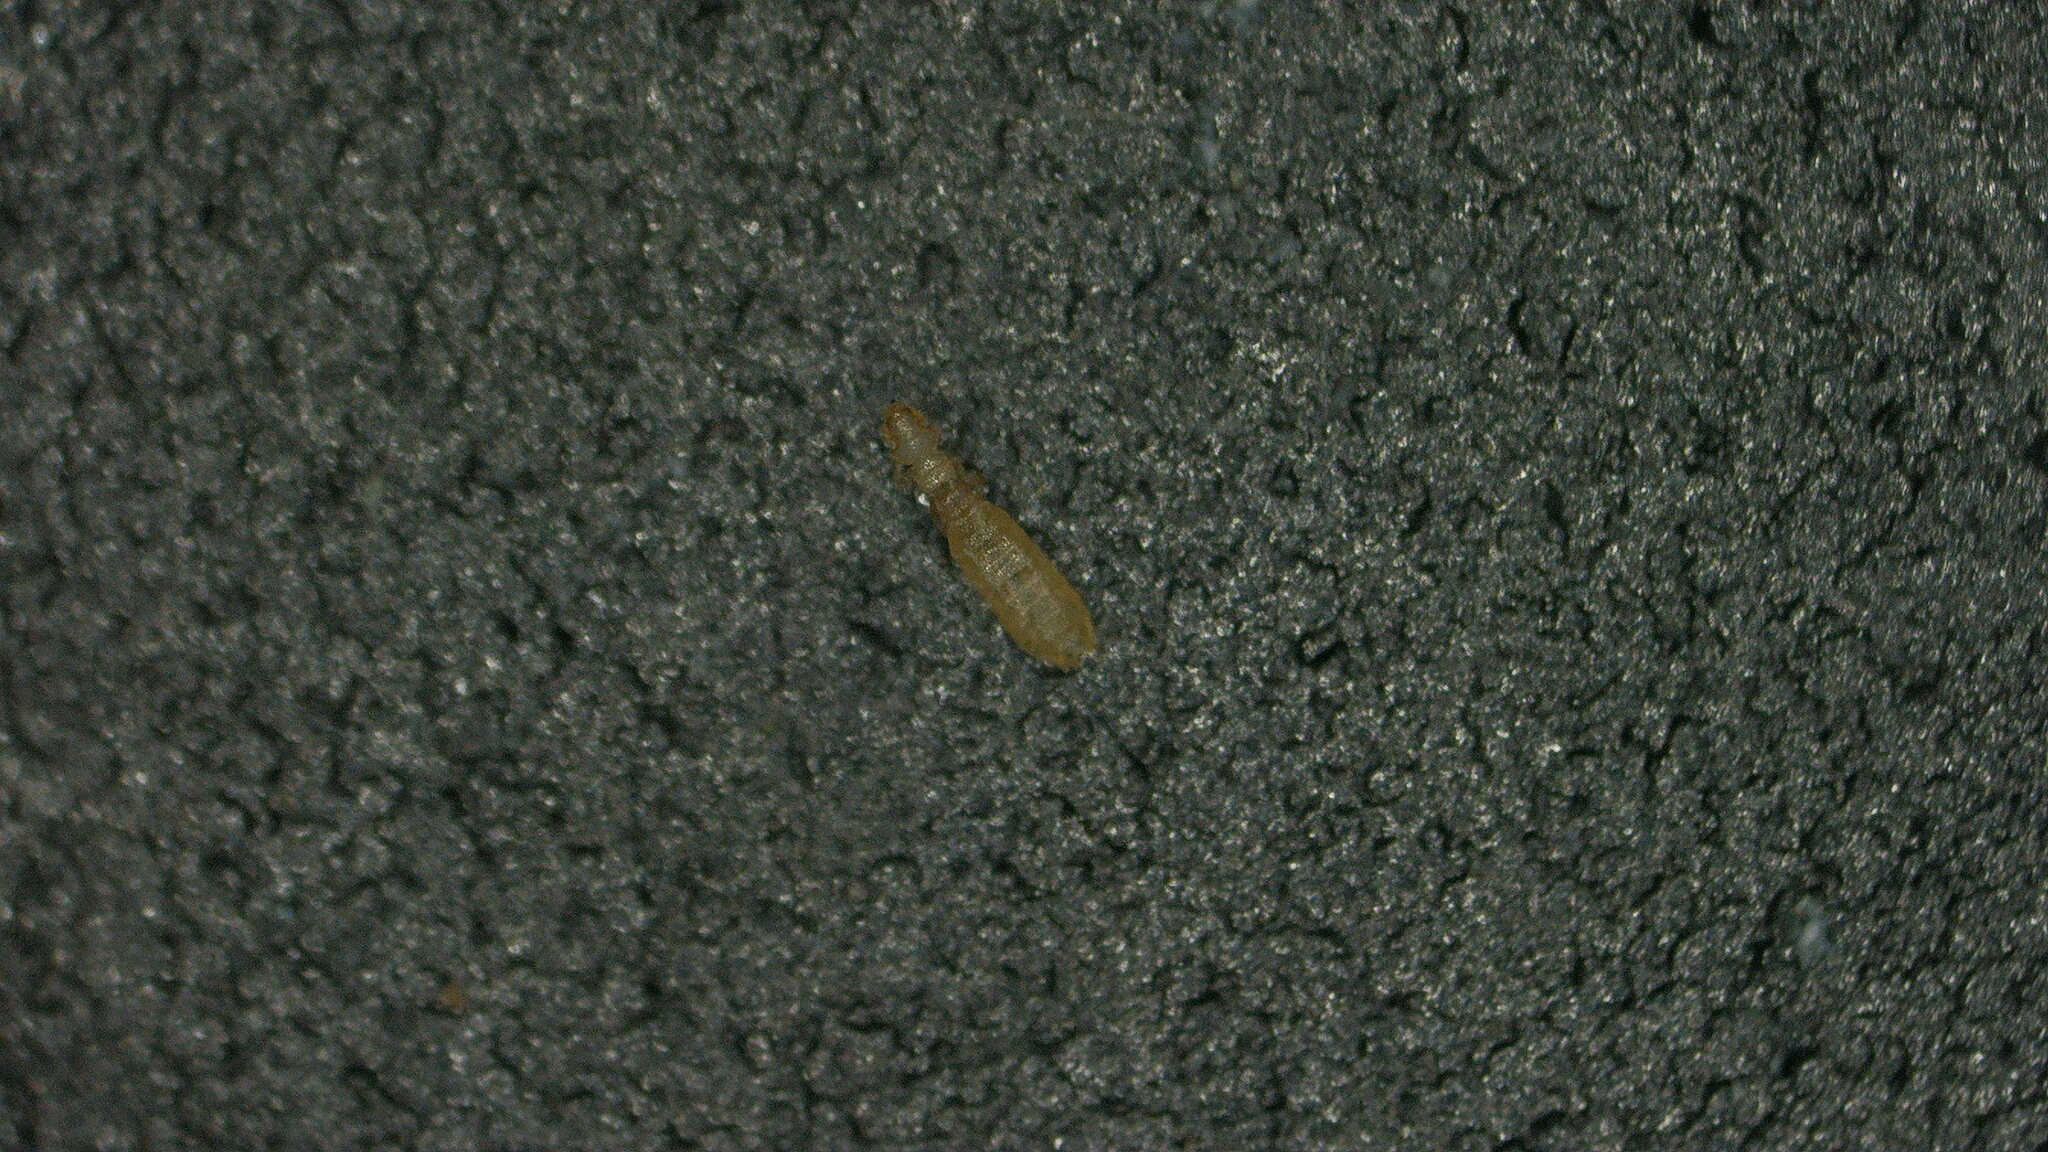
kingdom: Animalia
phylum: Arthropoda
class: Insecta
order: Psocodea
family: Gliricolidae
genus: Gliricola
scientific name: Gliricola porcelli
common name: Louse
